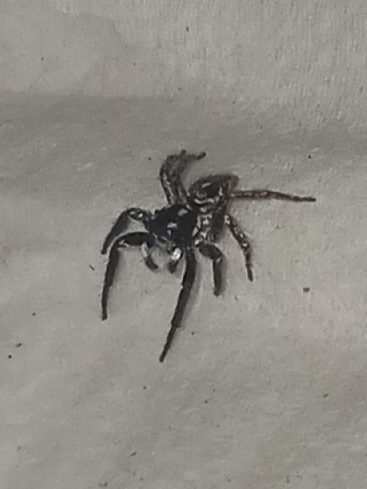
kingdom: Animalia
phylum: Arthropoda
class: Arachnida
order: Araneae
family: Salticidae
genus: Anasaitis
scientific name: Anasaitis canosa
